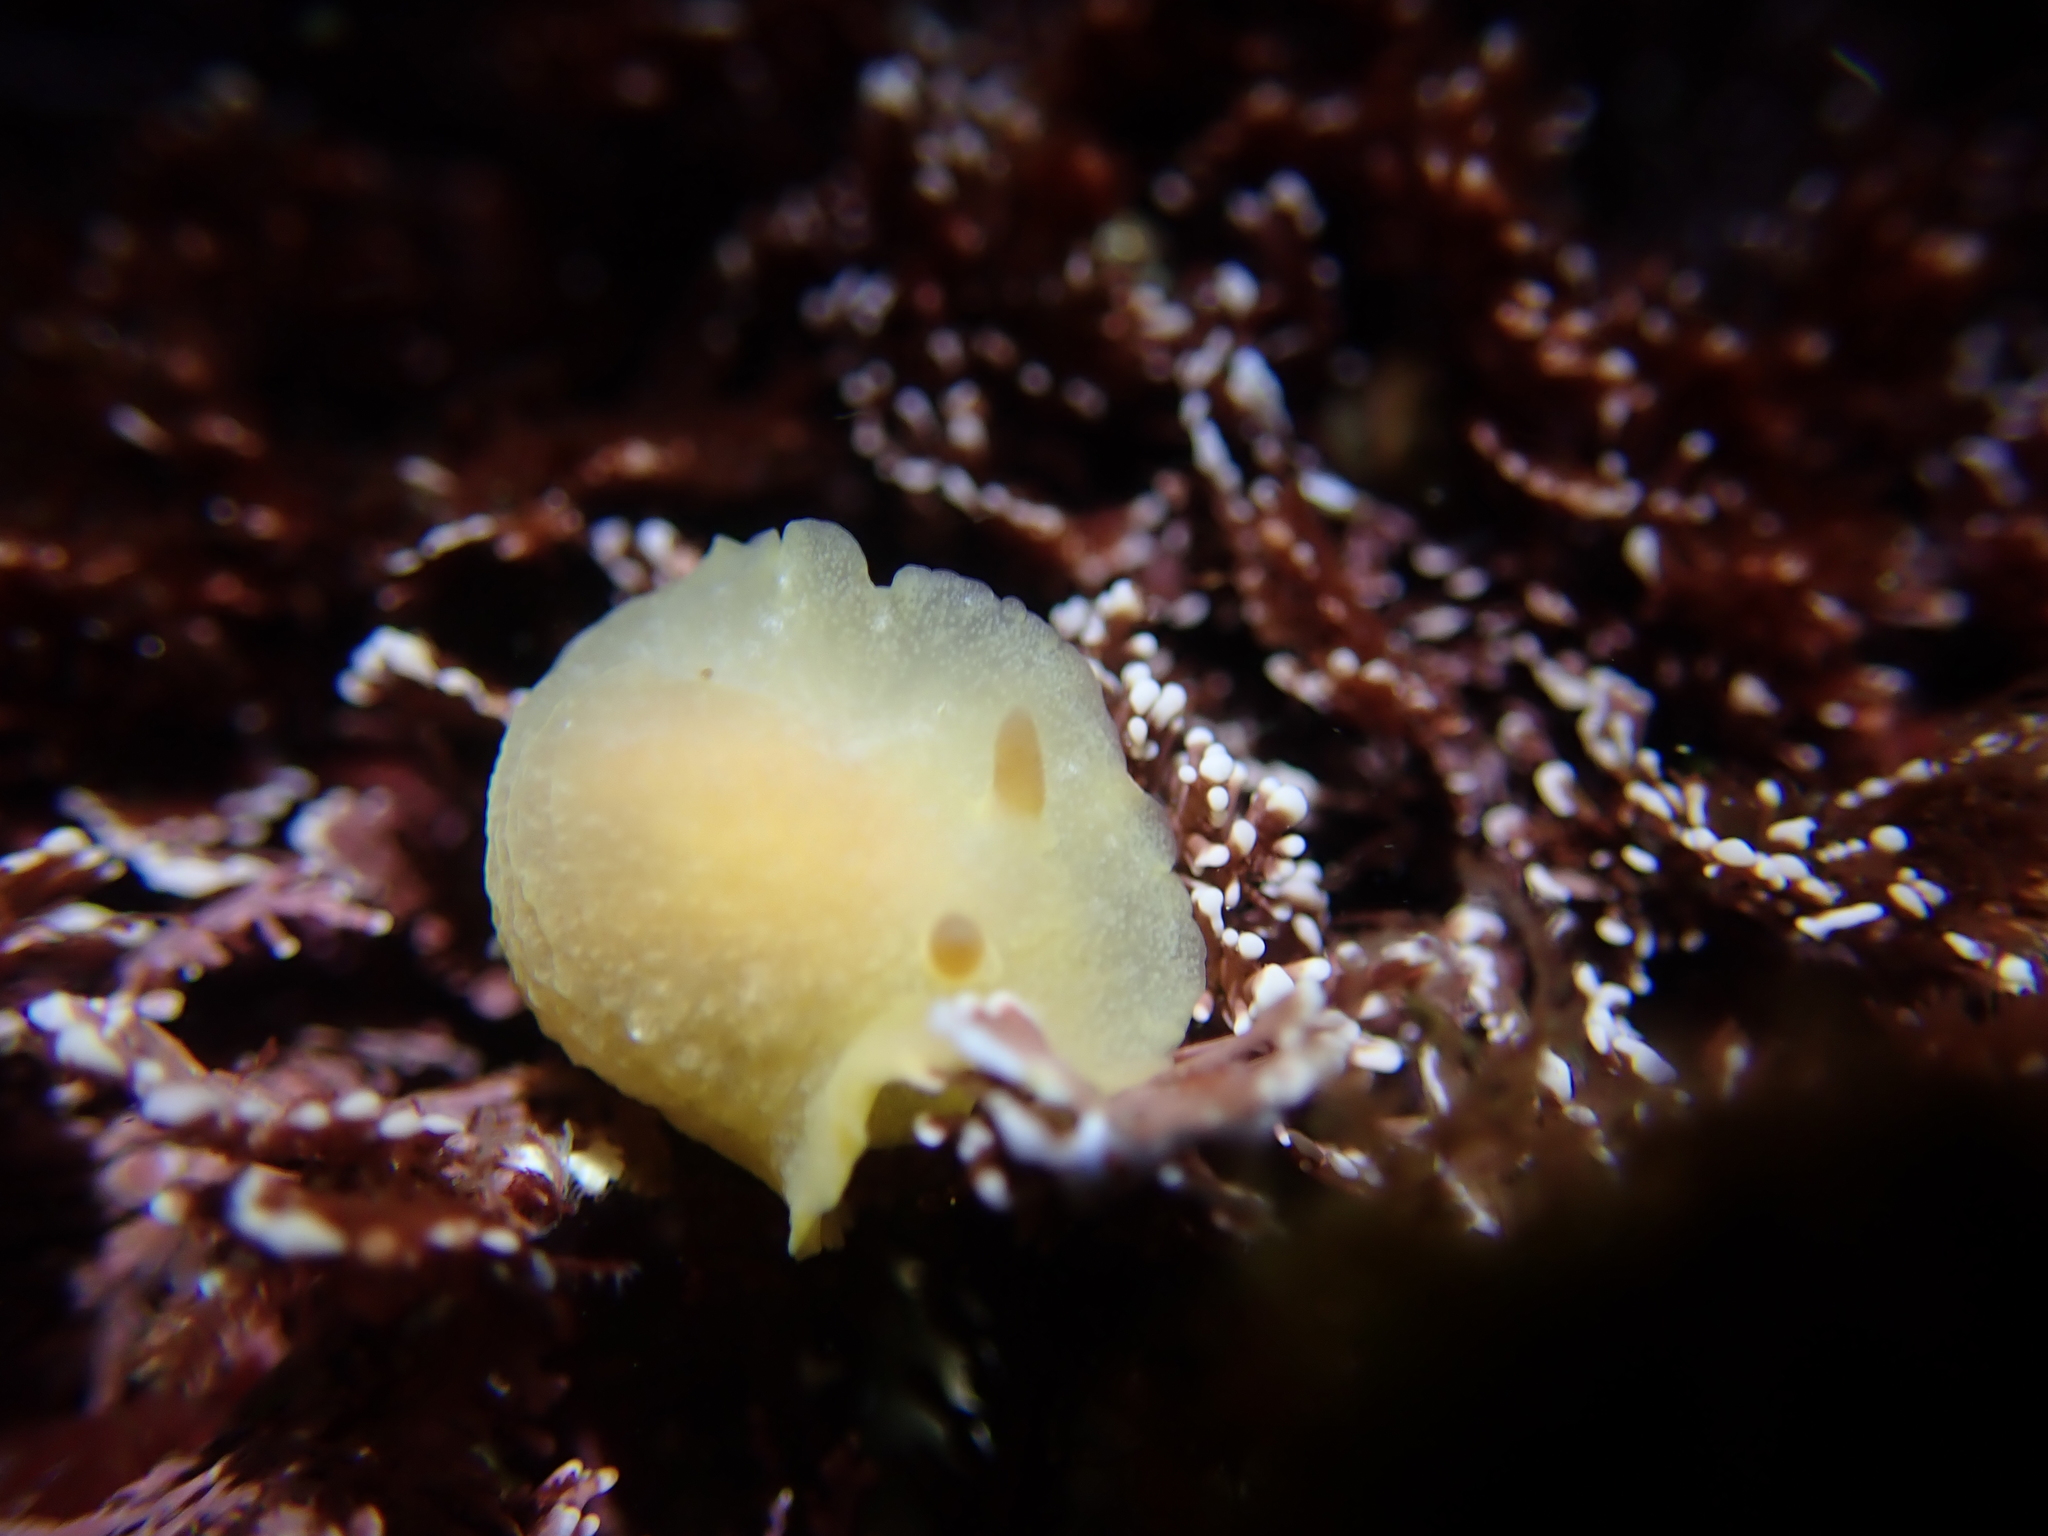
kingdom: Animalia
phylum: Mollusca
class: Gastropoda
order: Nudibranchia
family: Dendrodorididae
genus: Doriopsilla
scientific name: Doriopsilla carneola
